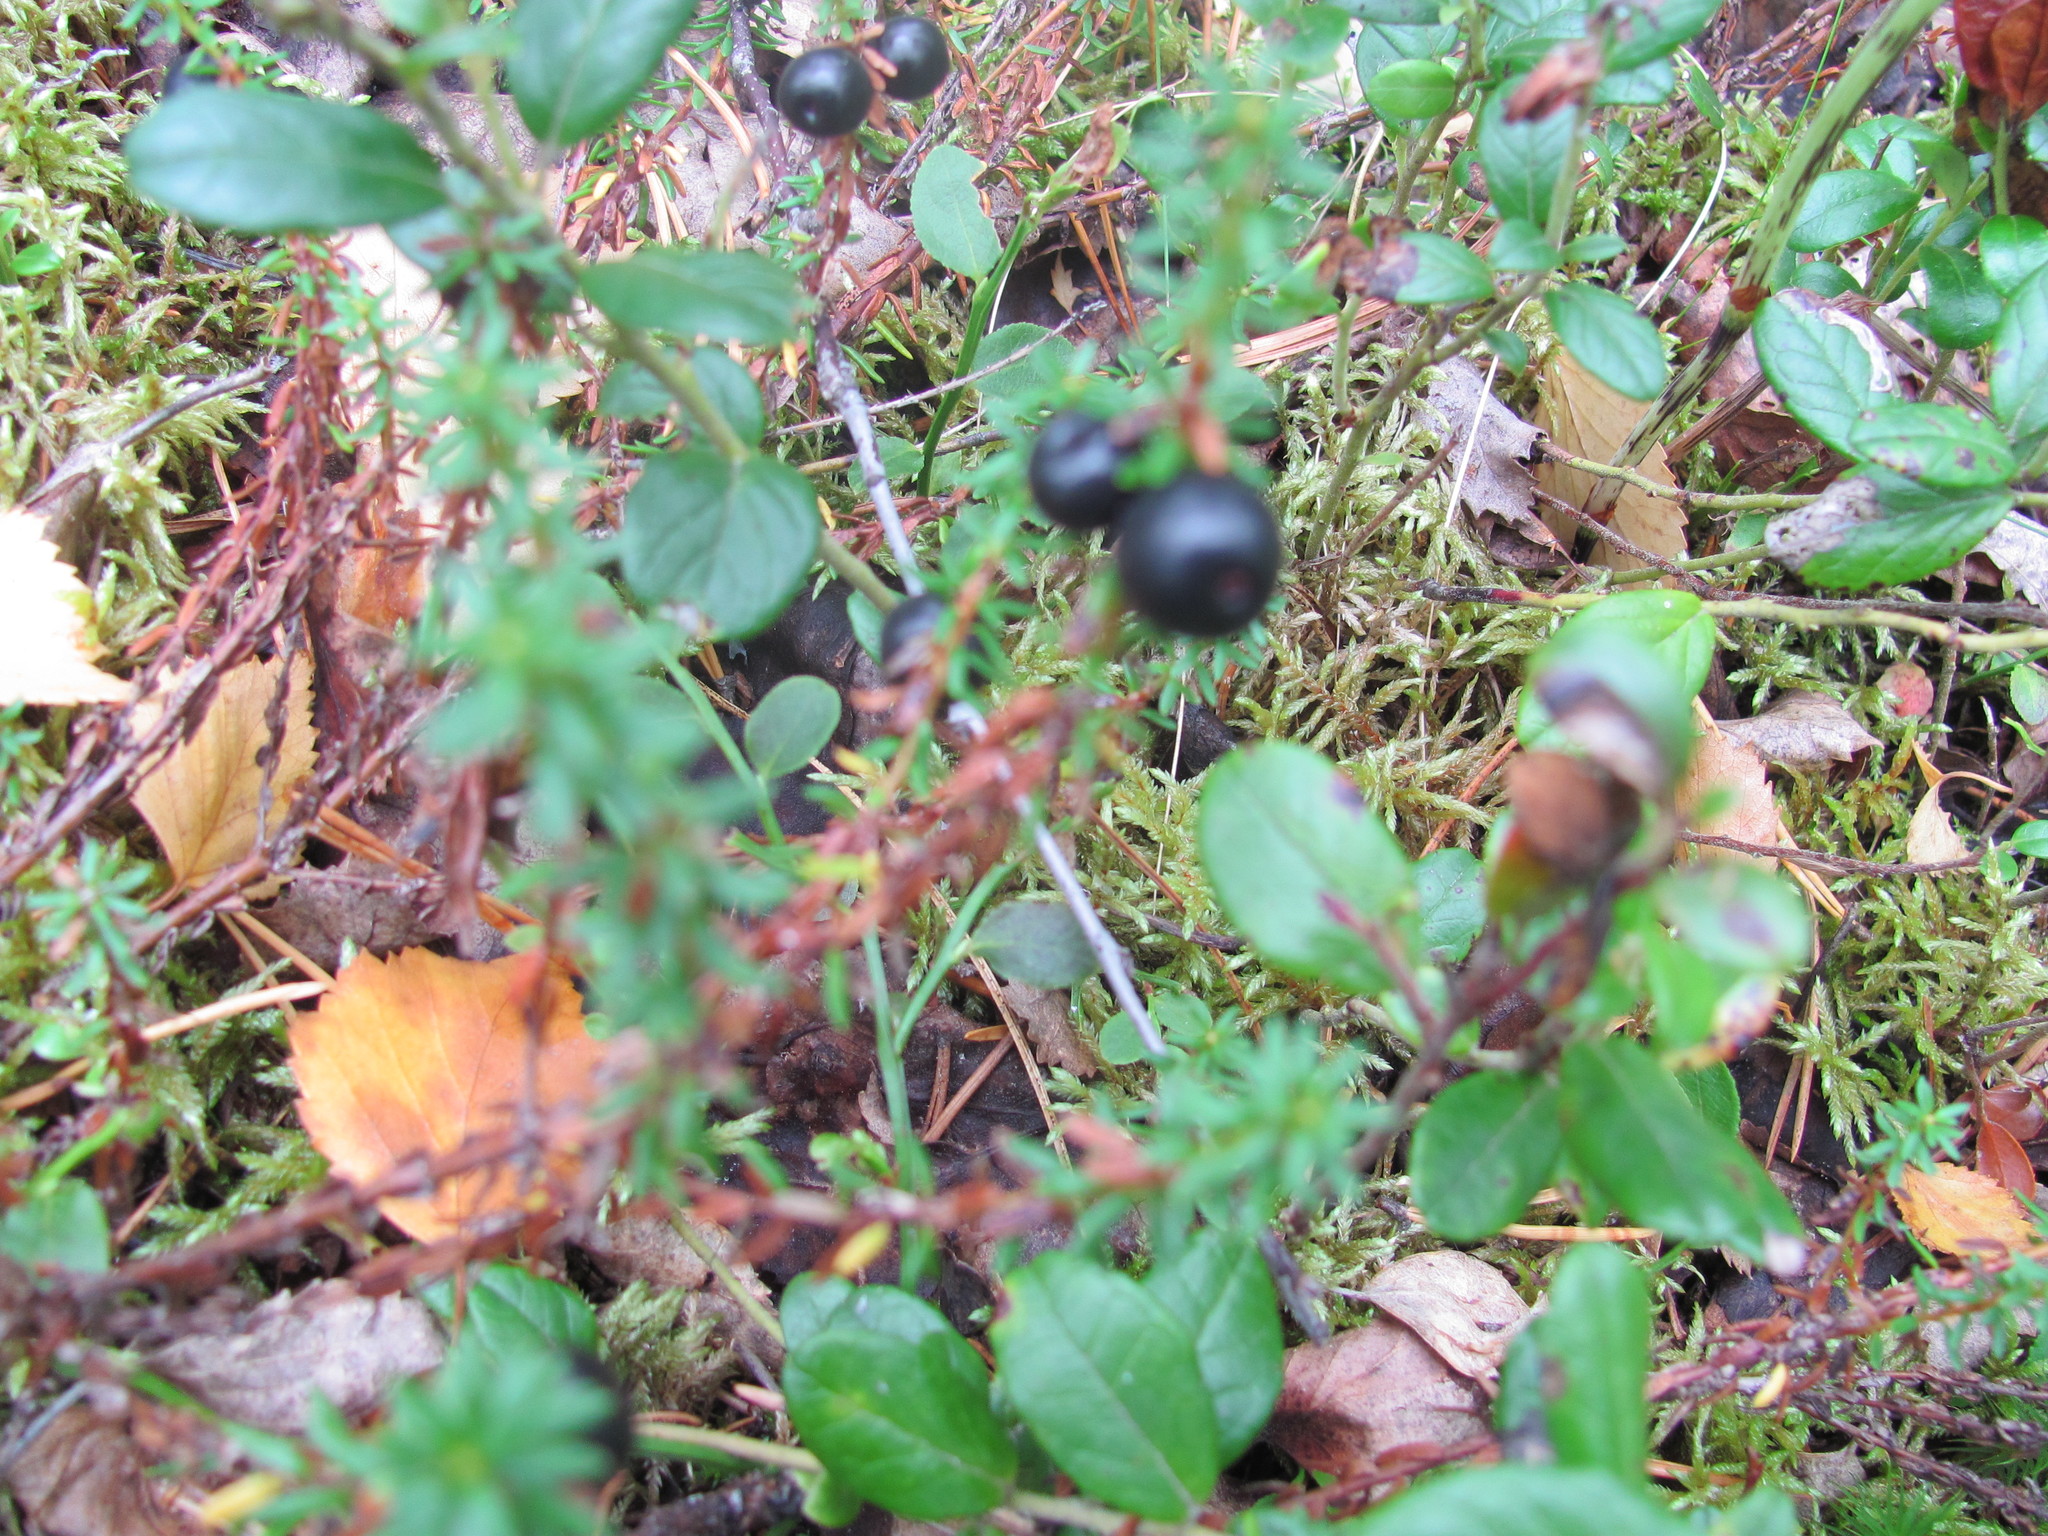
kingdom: Plantae
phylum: Tracheophyta
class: Magnoliopsida
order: Ericales
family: Ericaceae
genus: Empetrum
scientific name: Empetrum nigrum
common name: Black crowberry
